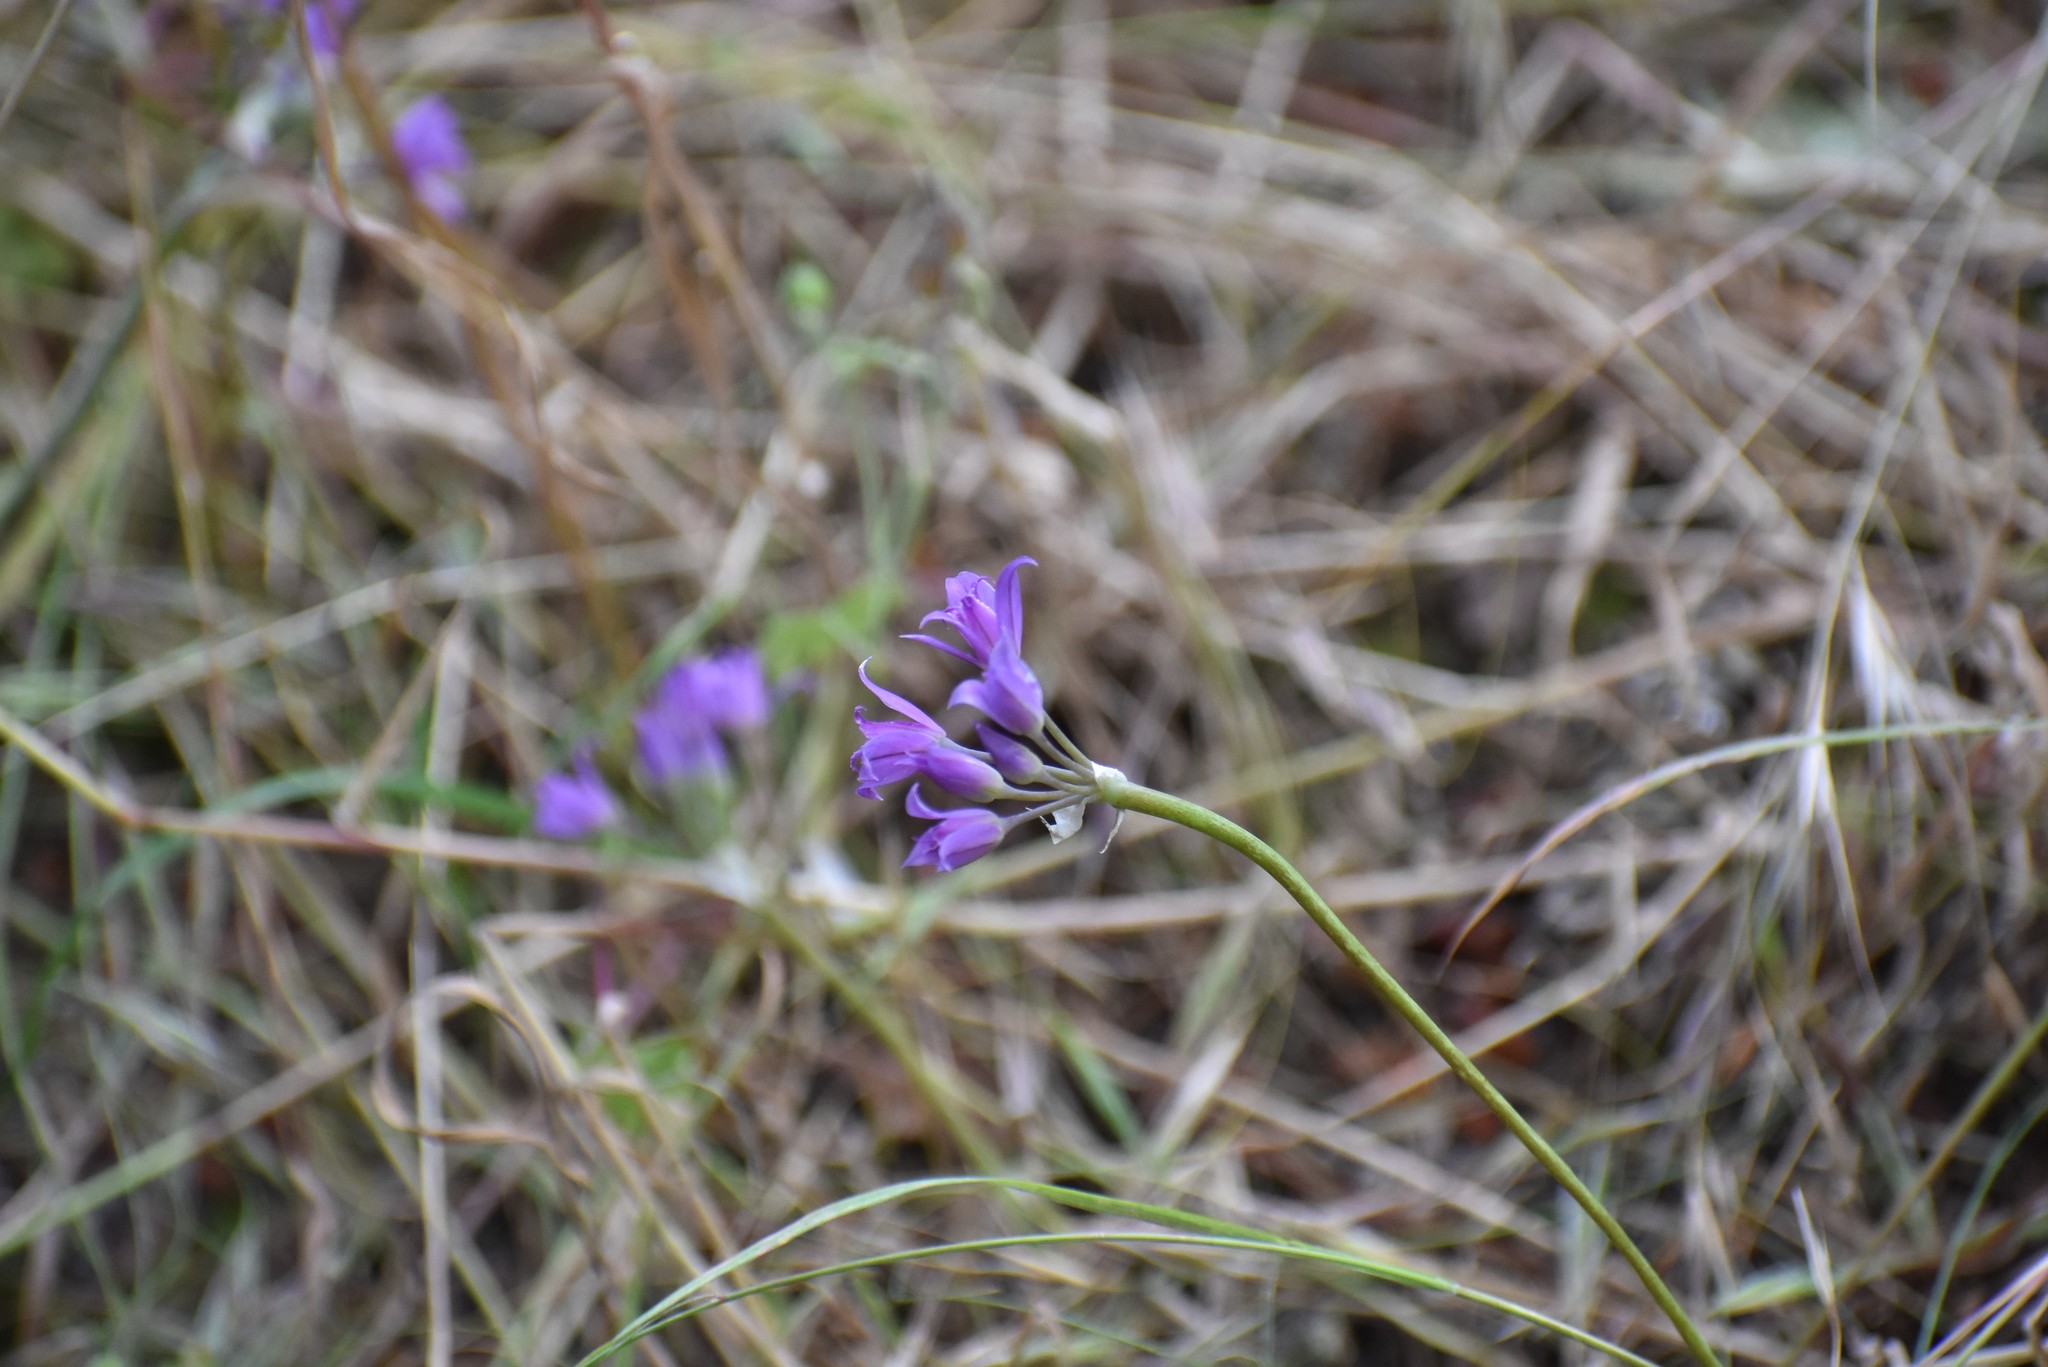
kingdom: Plantae
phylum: Tracheophyta
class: Liliopsida
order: Asparagales
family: Amaryllidaceae
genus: Allium
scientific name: Allium acuminatum
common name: Hooker's onion
